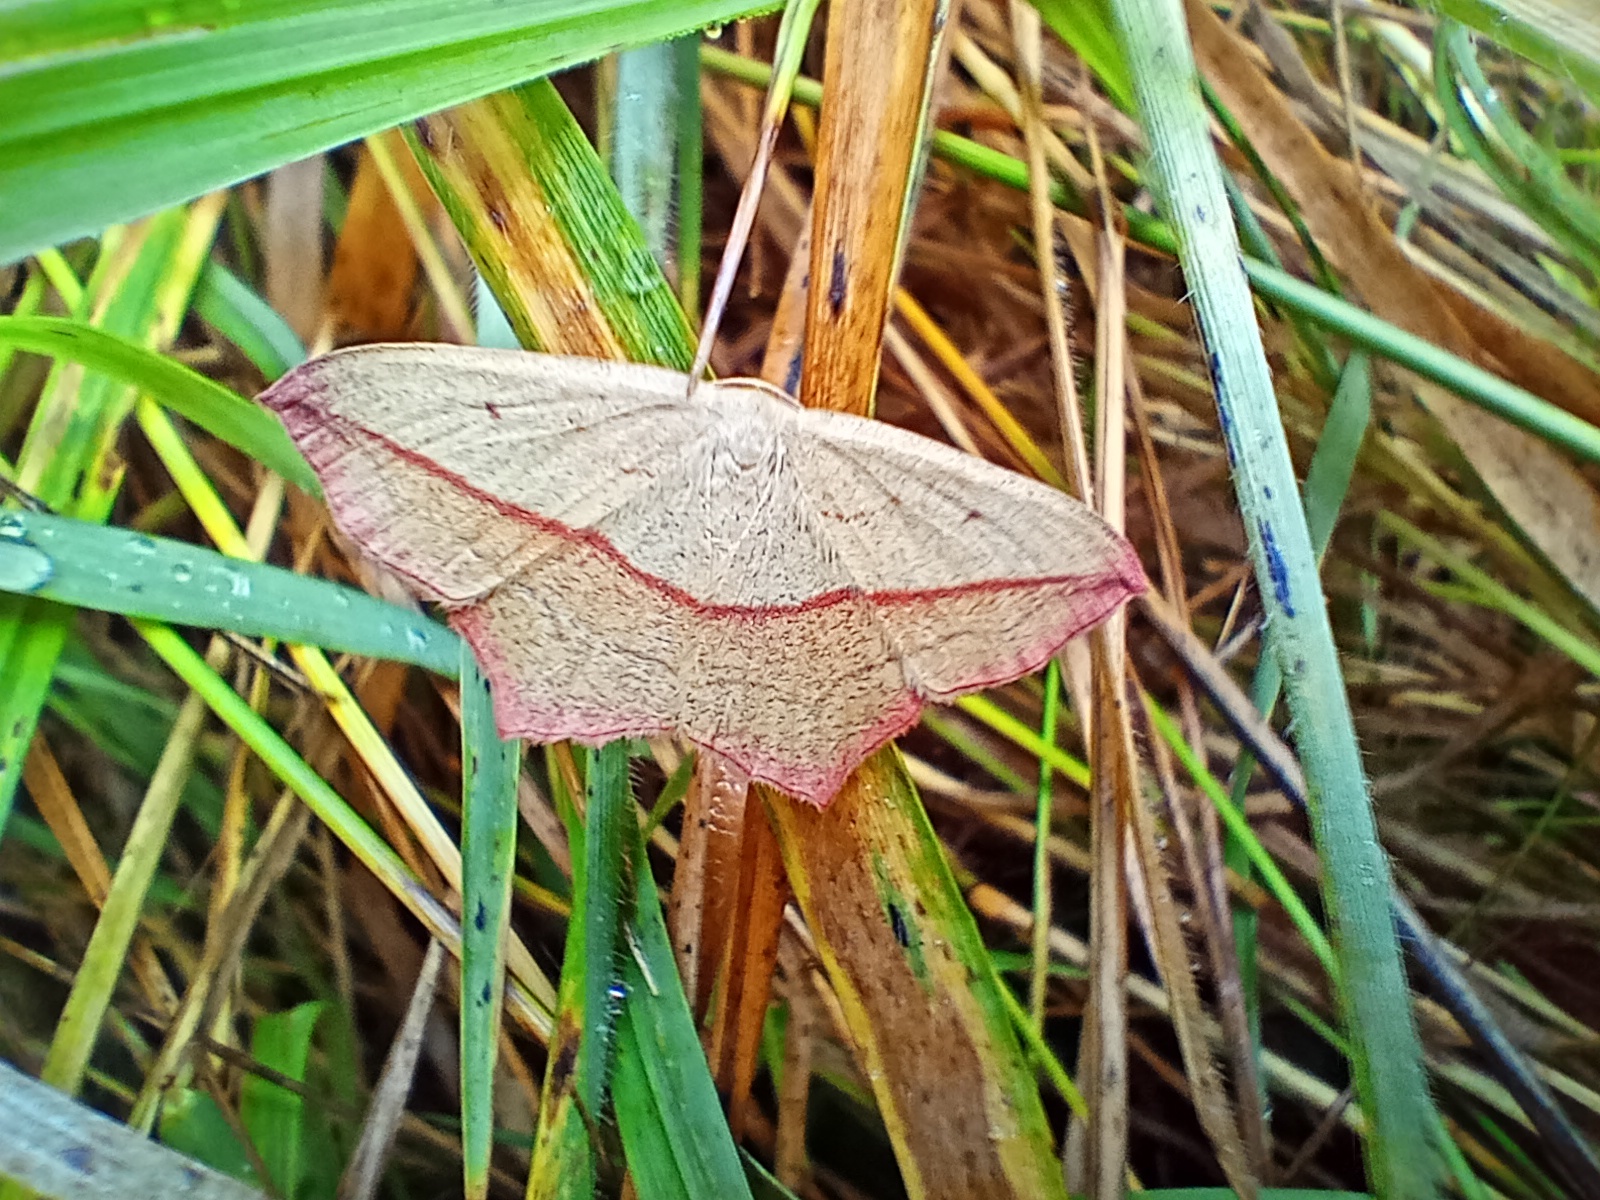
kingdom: Animalia
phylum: Arthropoda
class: Insecta
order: Lepidoptera
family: Geometridae
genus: Timandra
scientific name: Timandra comae
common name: Blood-vein
